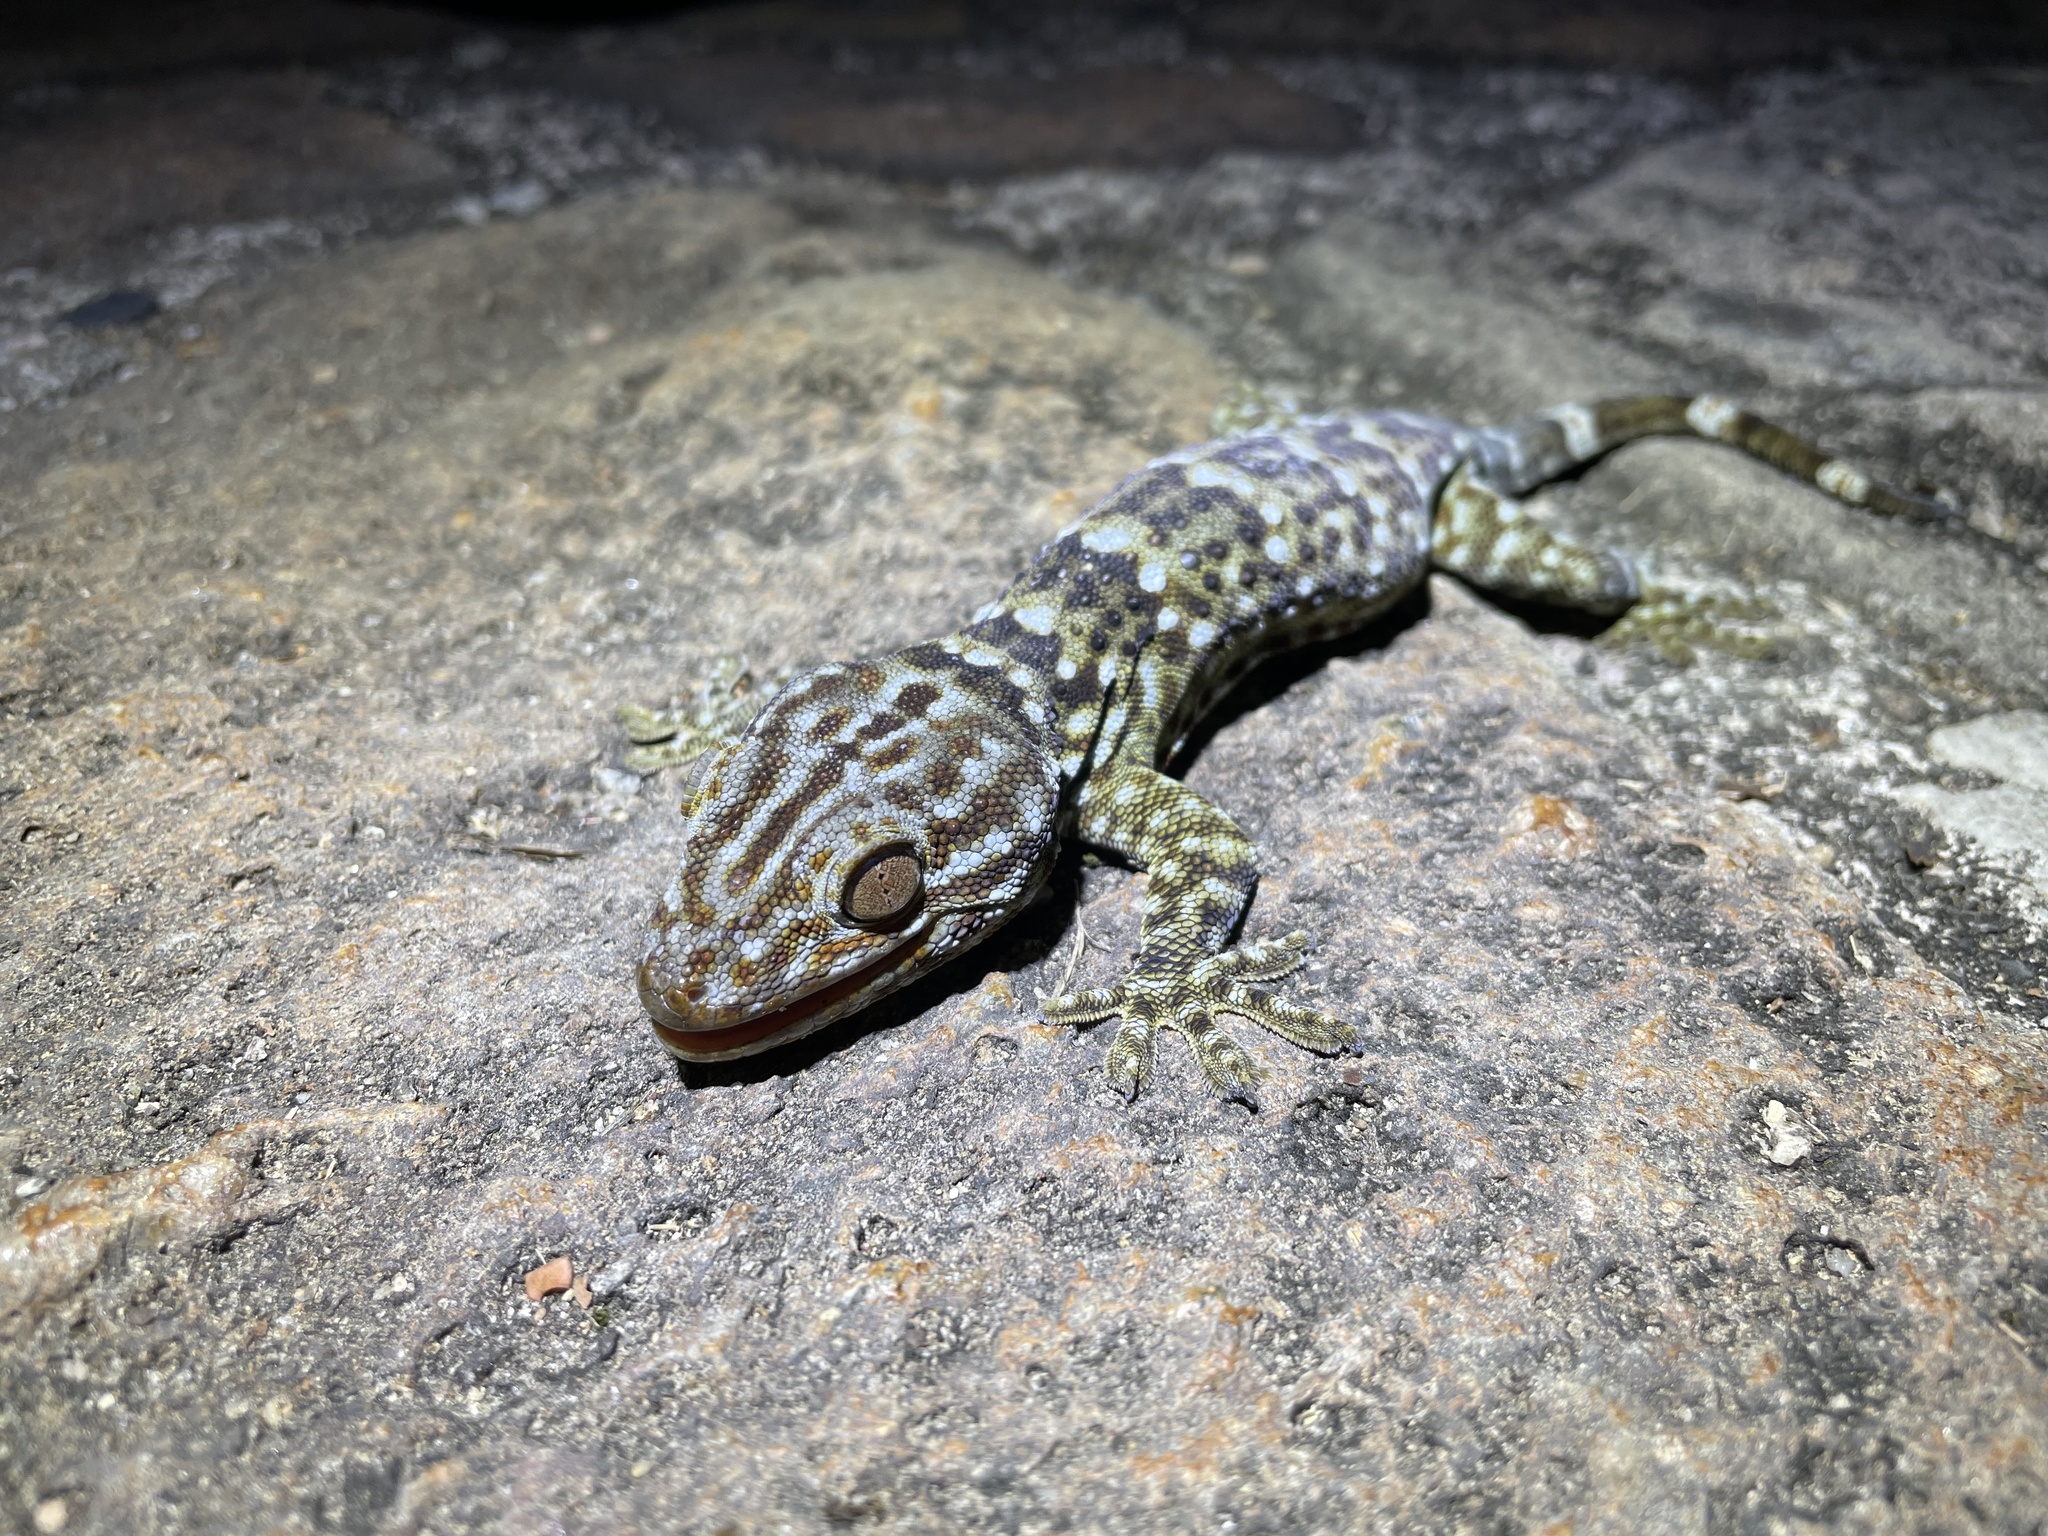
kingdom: Animalia
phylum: Chordata
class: Squamata
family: Gekkonidae
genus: Gekko
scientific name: Gekko reevesii
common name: Reeves’ tokay gecko
